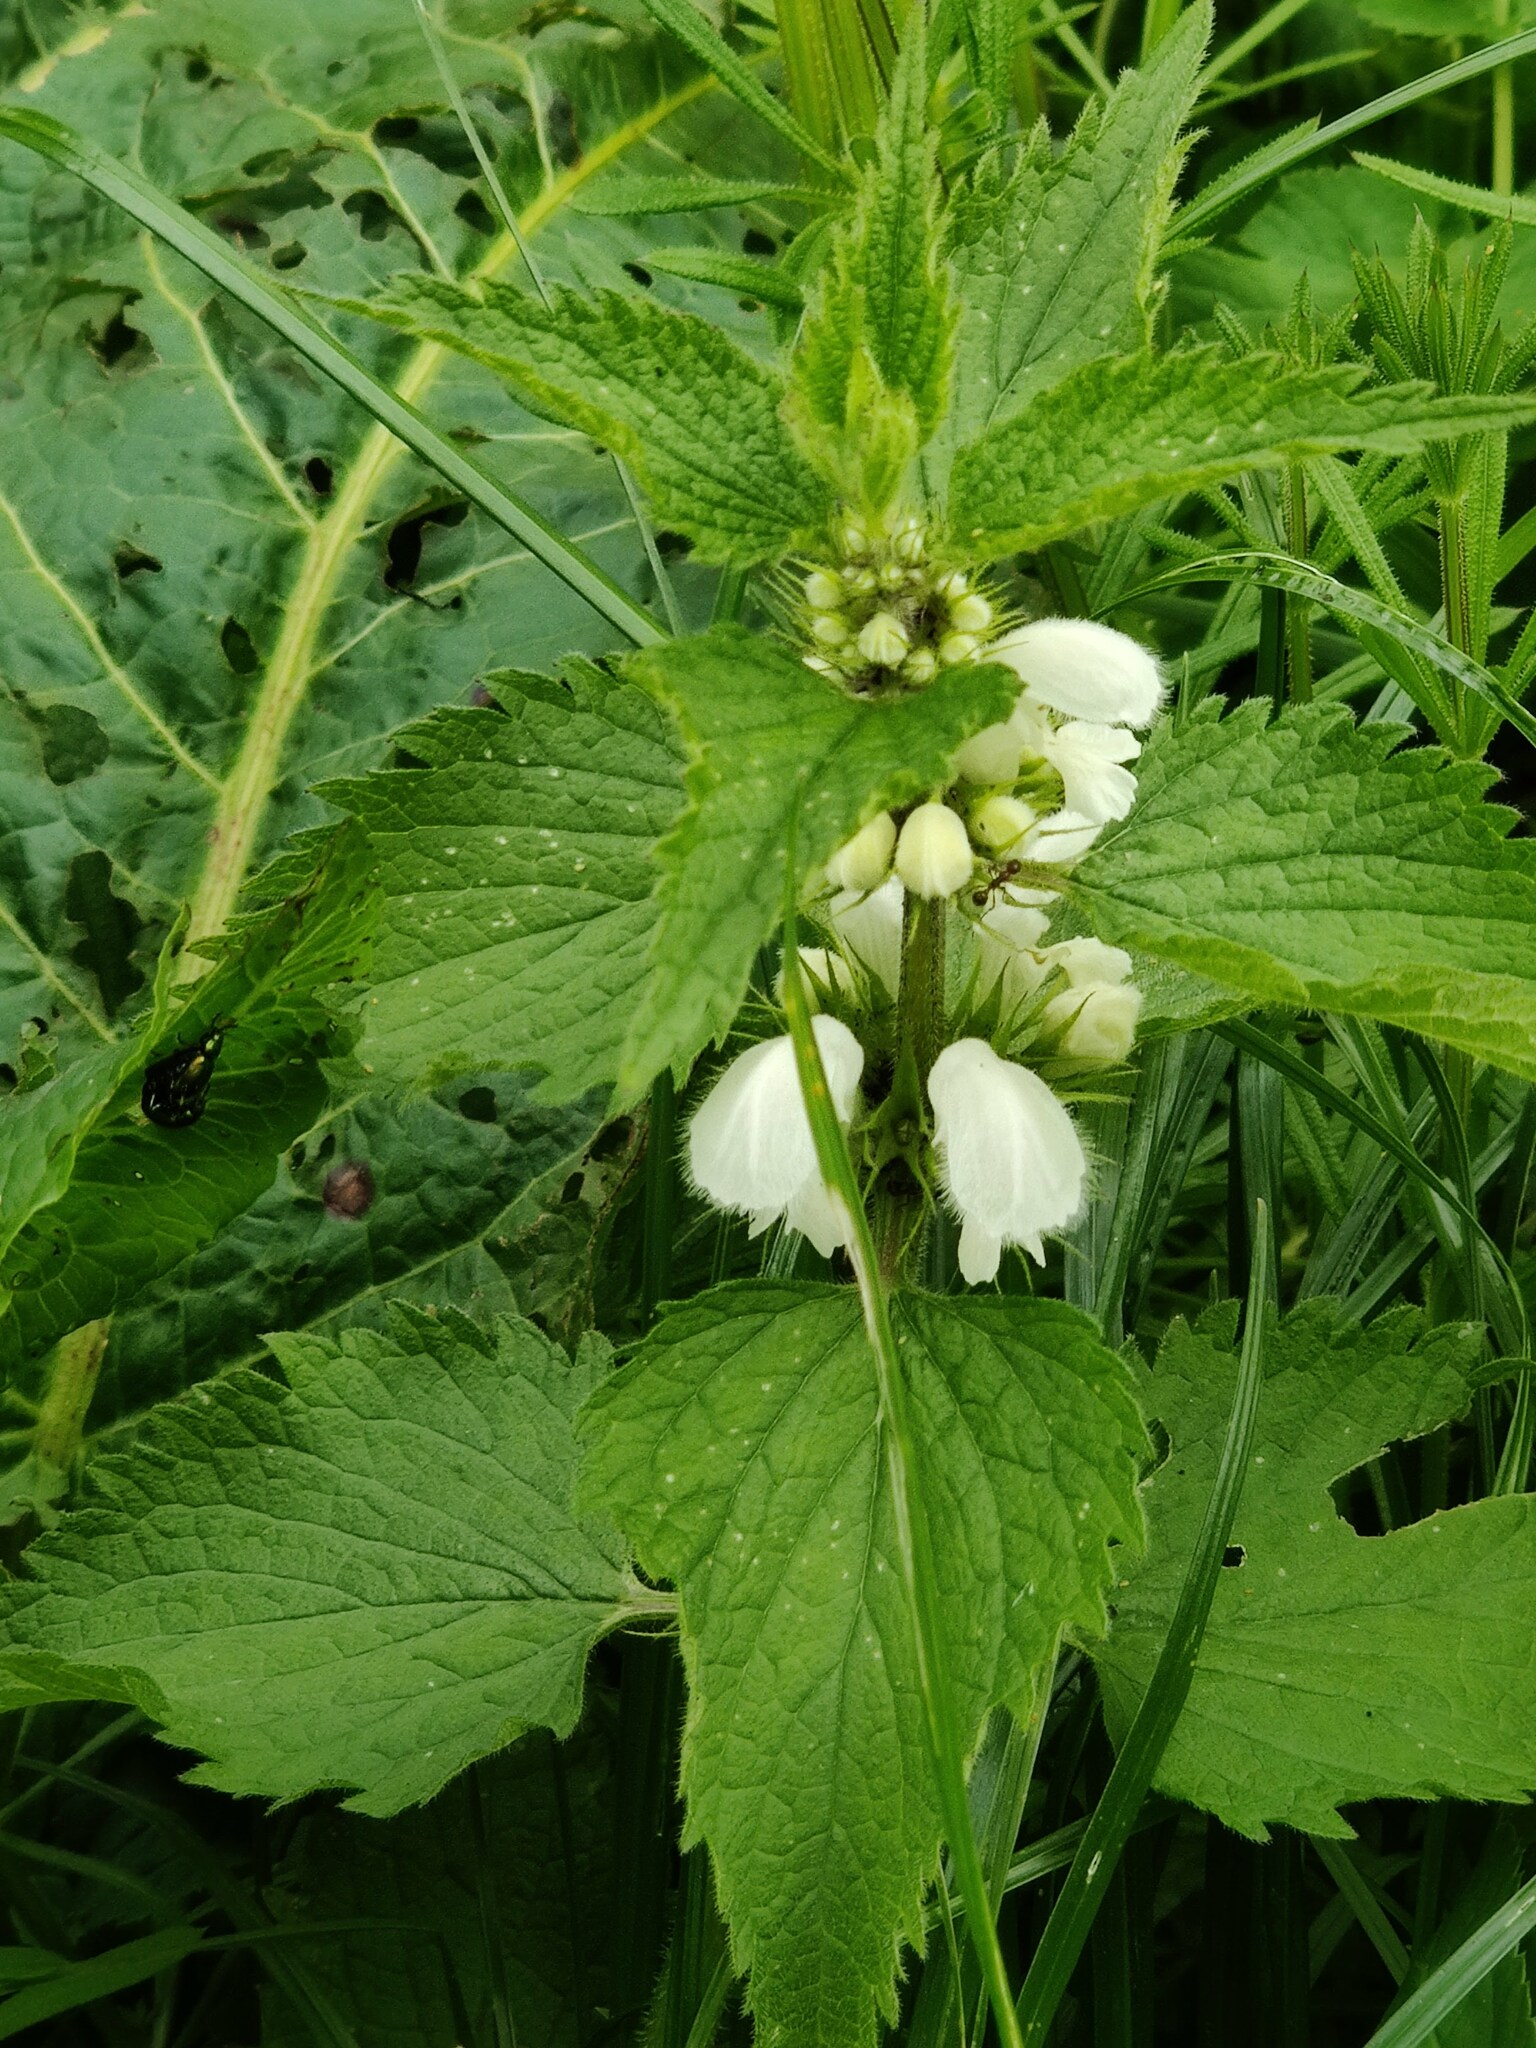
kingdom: Plantae
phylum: Tracheophyta
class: Magnoliopsida
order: Lamiales
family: Lamiaceae
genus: Lamium
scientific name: Lamium album
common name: White dead-nettle
